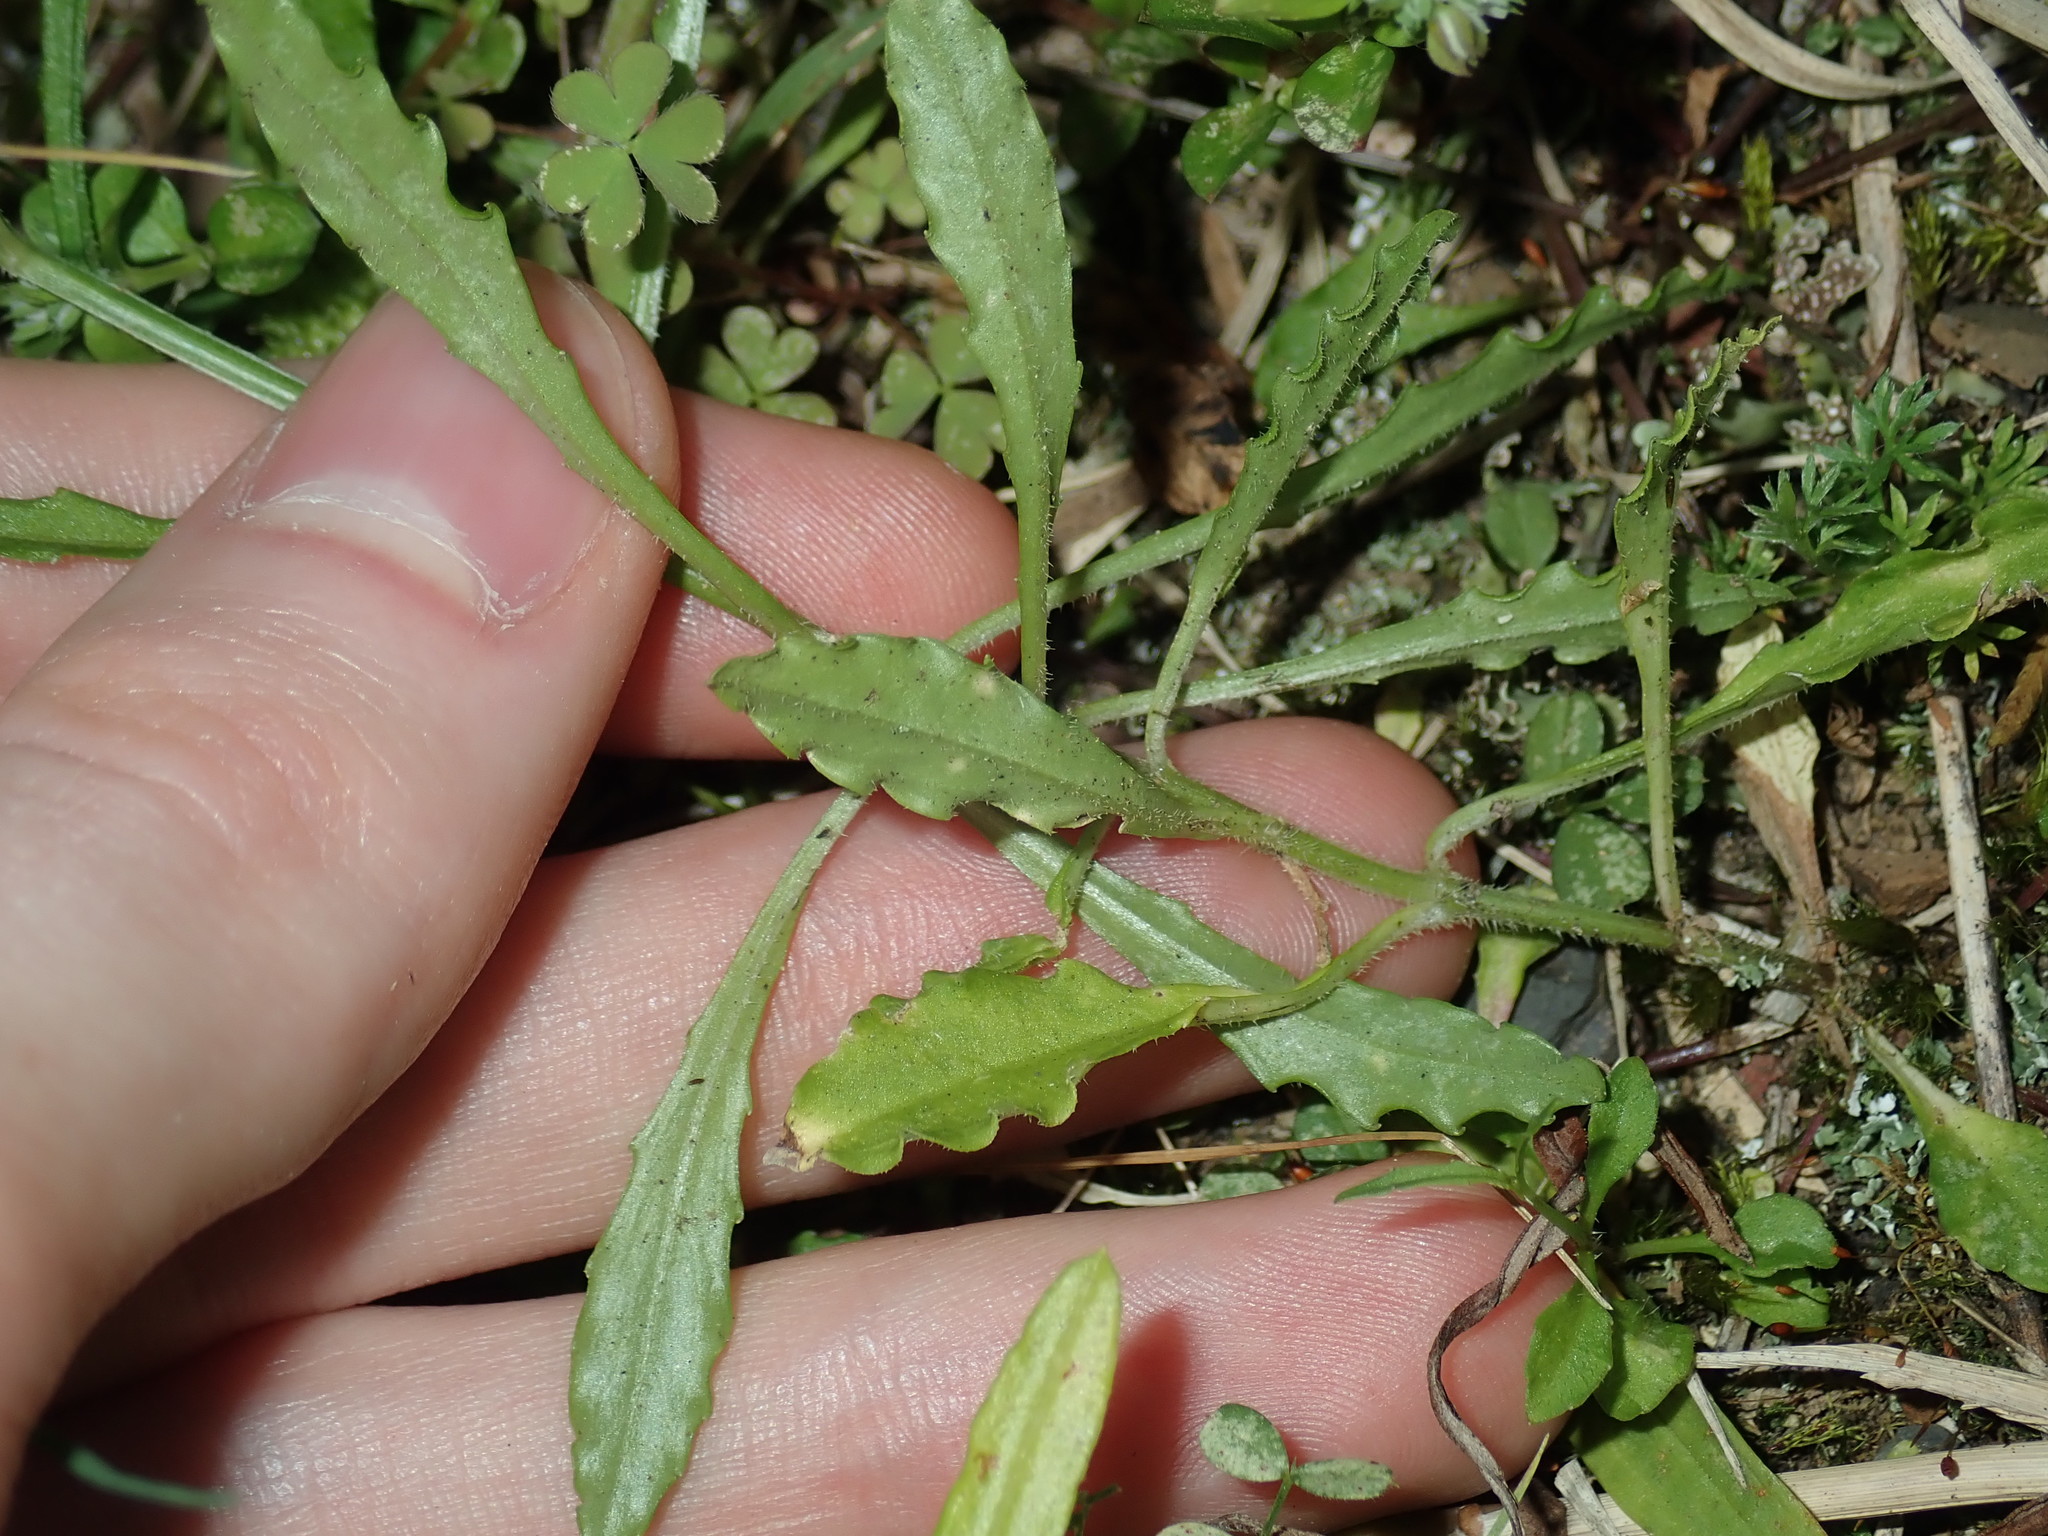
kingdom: Plantae
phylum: Tracheophyta
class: Magnoliopsida
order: Asterales
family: Campanulaceae
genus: Wahlenbergia
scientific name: Wahlenbergia gracilis
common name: Harebell
